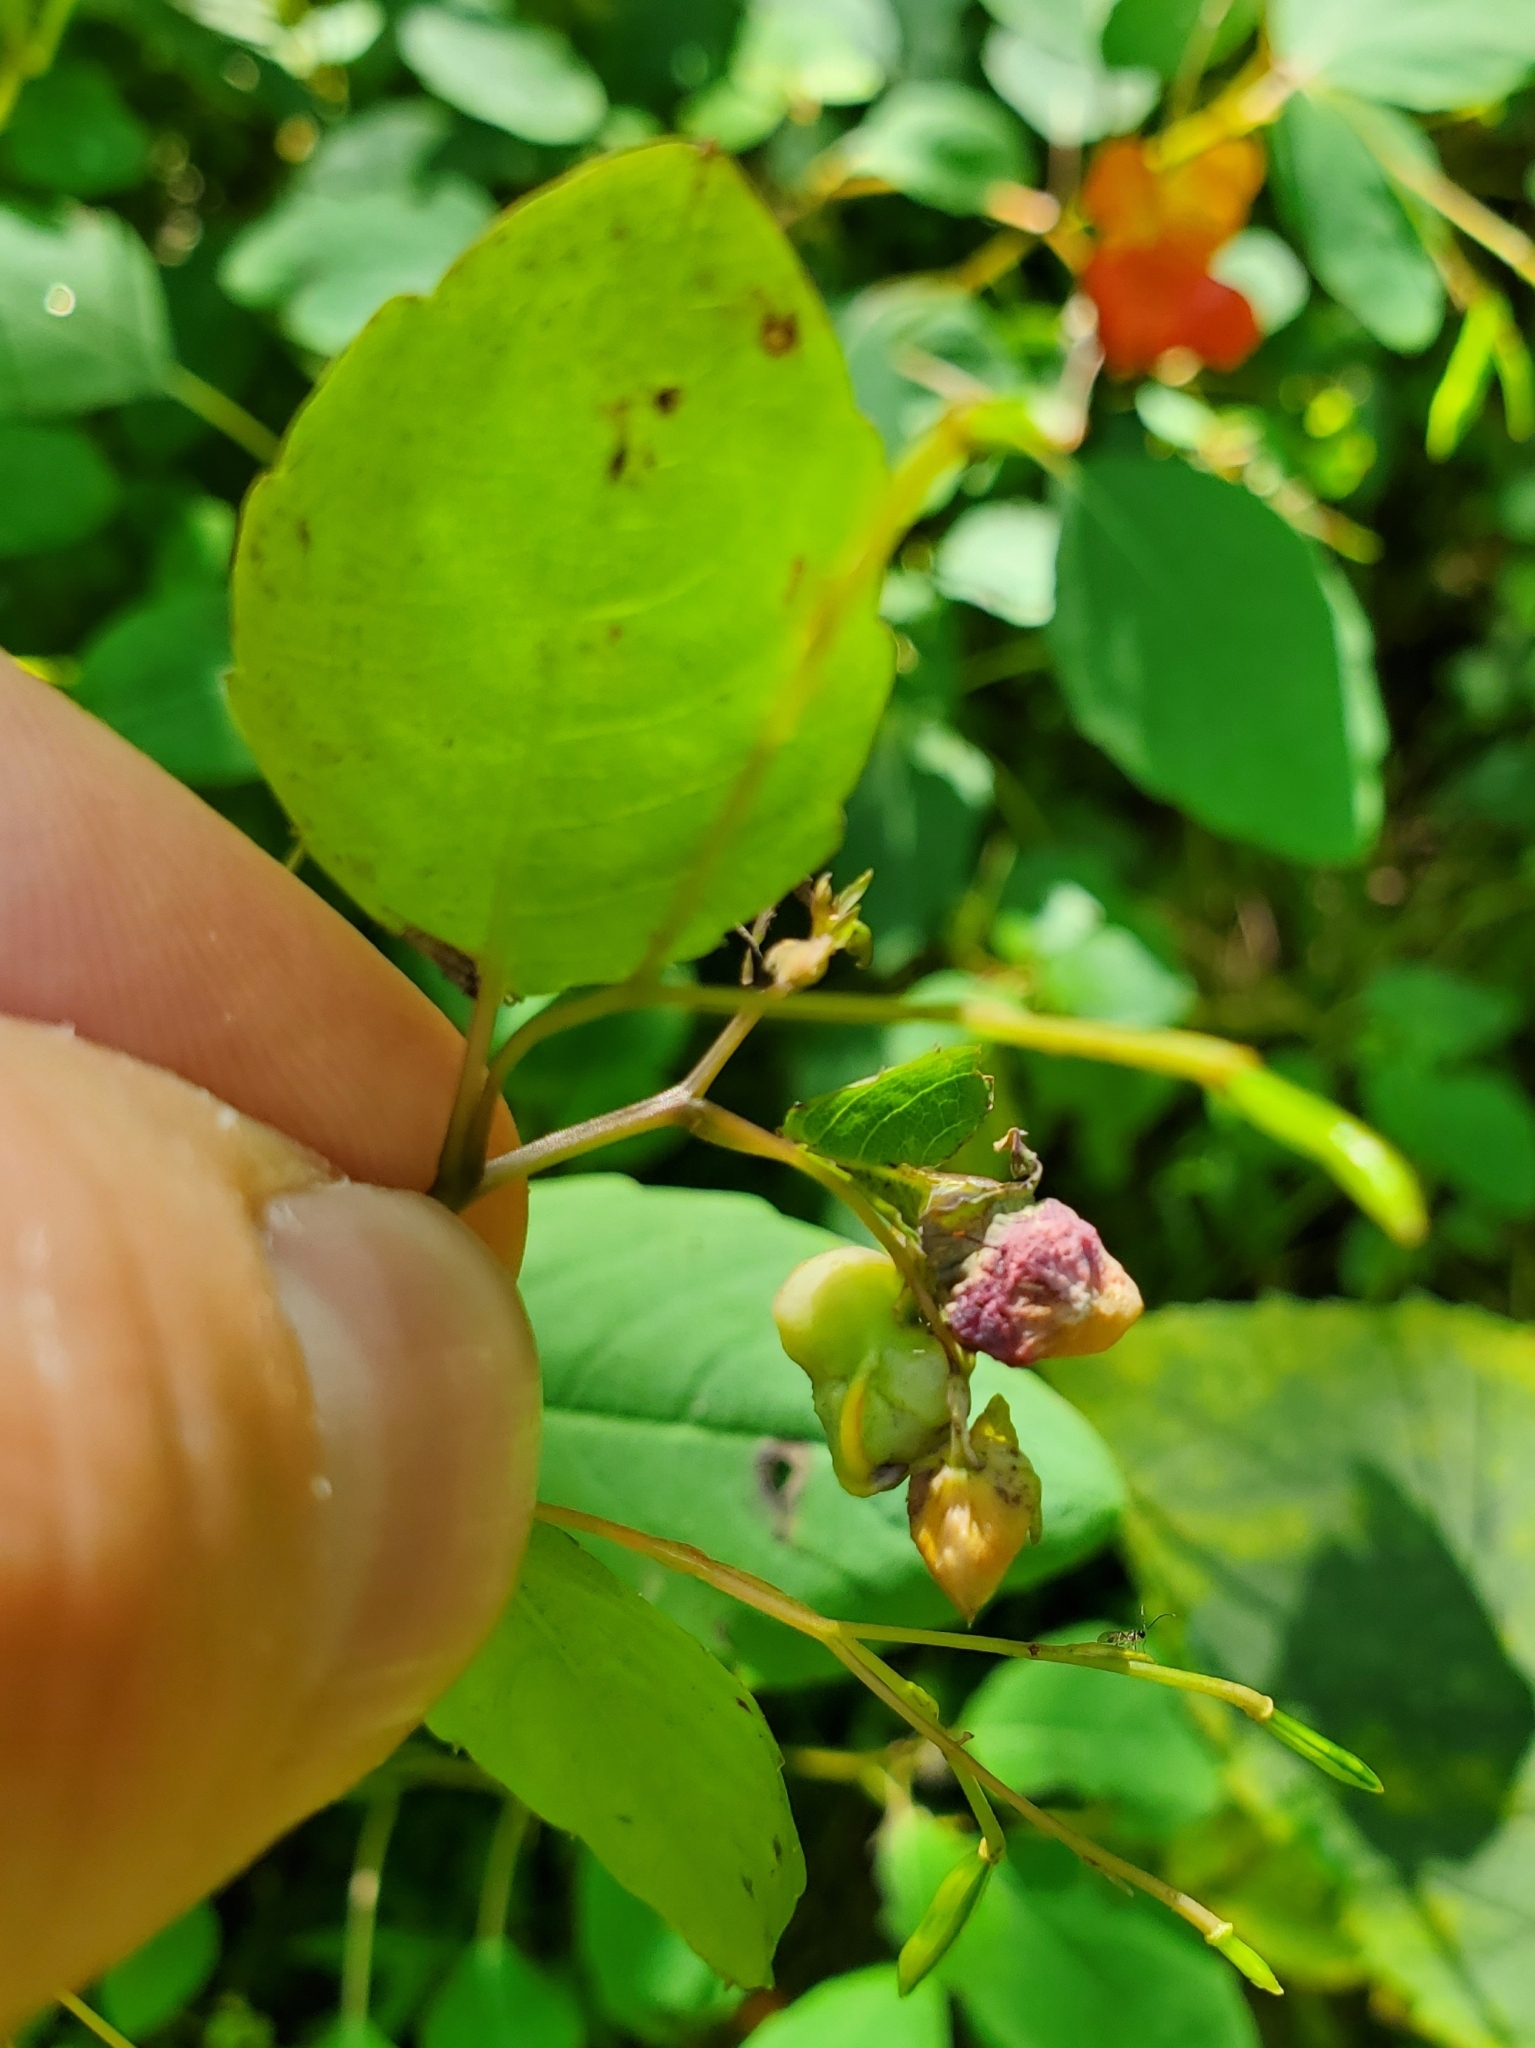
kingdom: Animalia
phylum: Arthropoda
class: Insecta
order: Diptera
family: Cecidomyiidae
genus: Schizomyia
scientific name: Schizomyia impatientis
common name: Jewelweed gall midge
